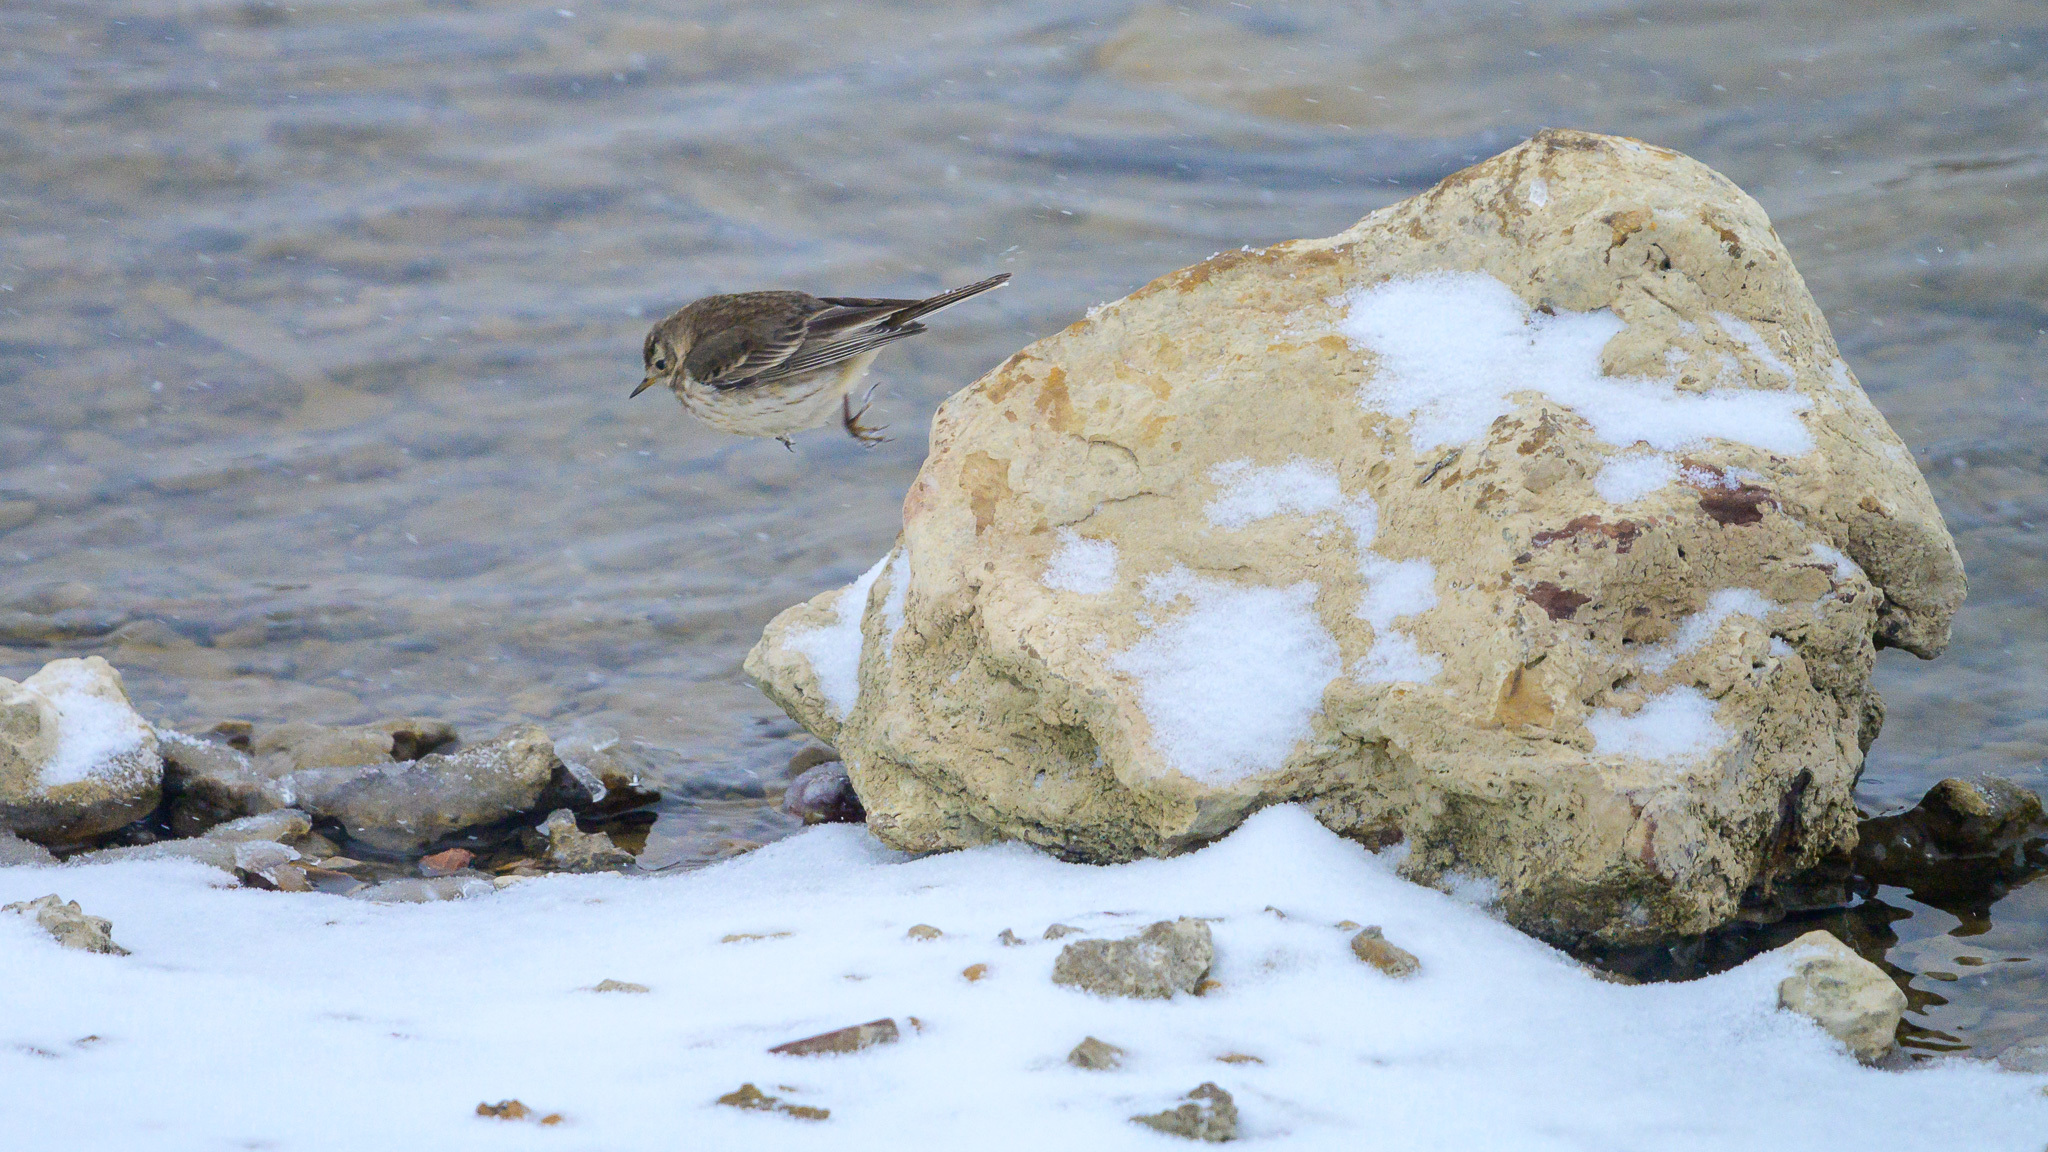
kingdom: Animalia
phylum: Chordata
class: Aves
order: Passeriformes
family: Motacillidae
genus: Anthus
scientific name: Anthus rubescens
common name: Buff-bellied pipit
